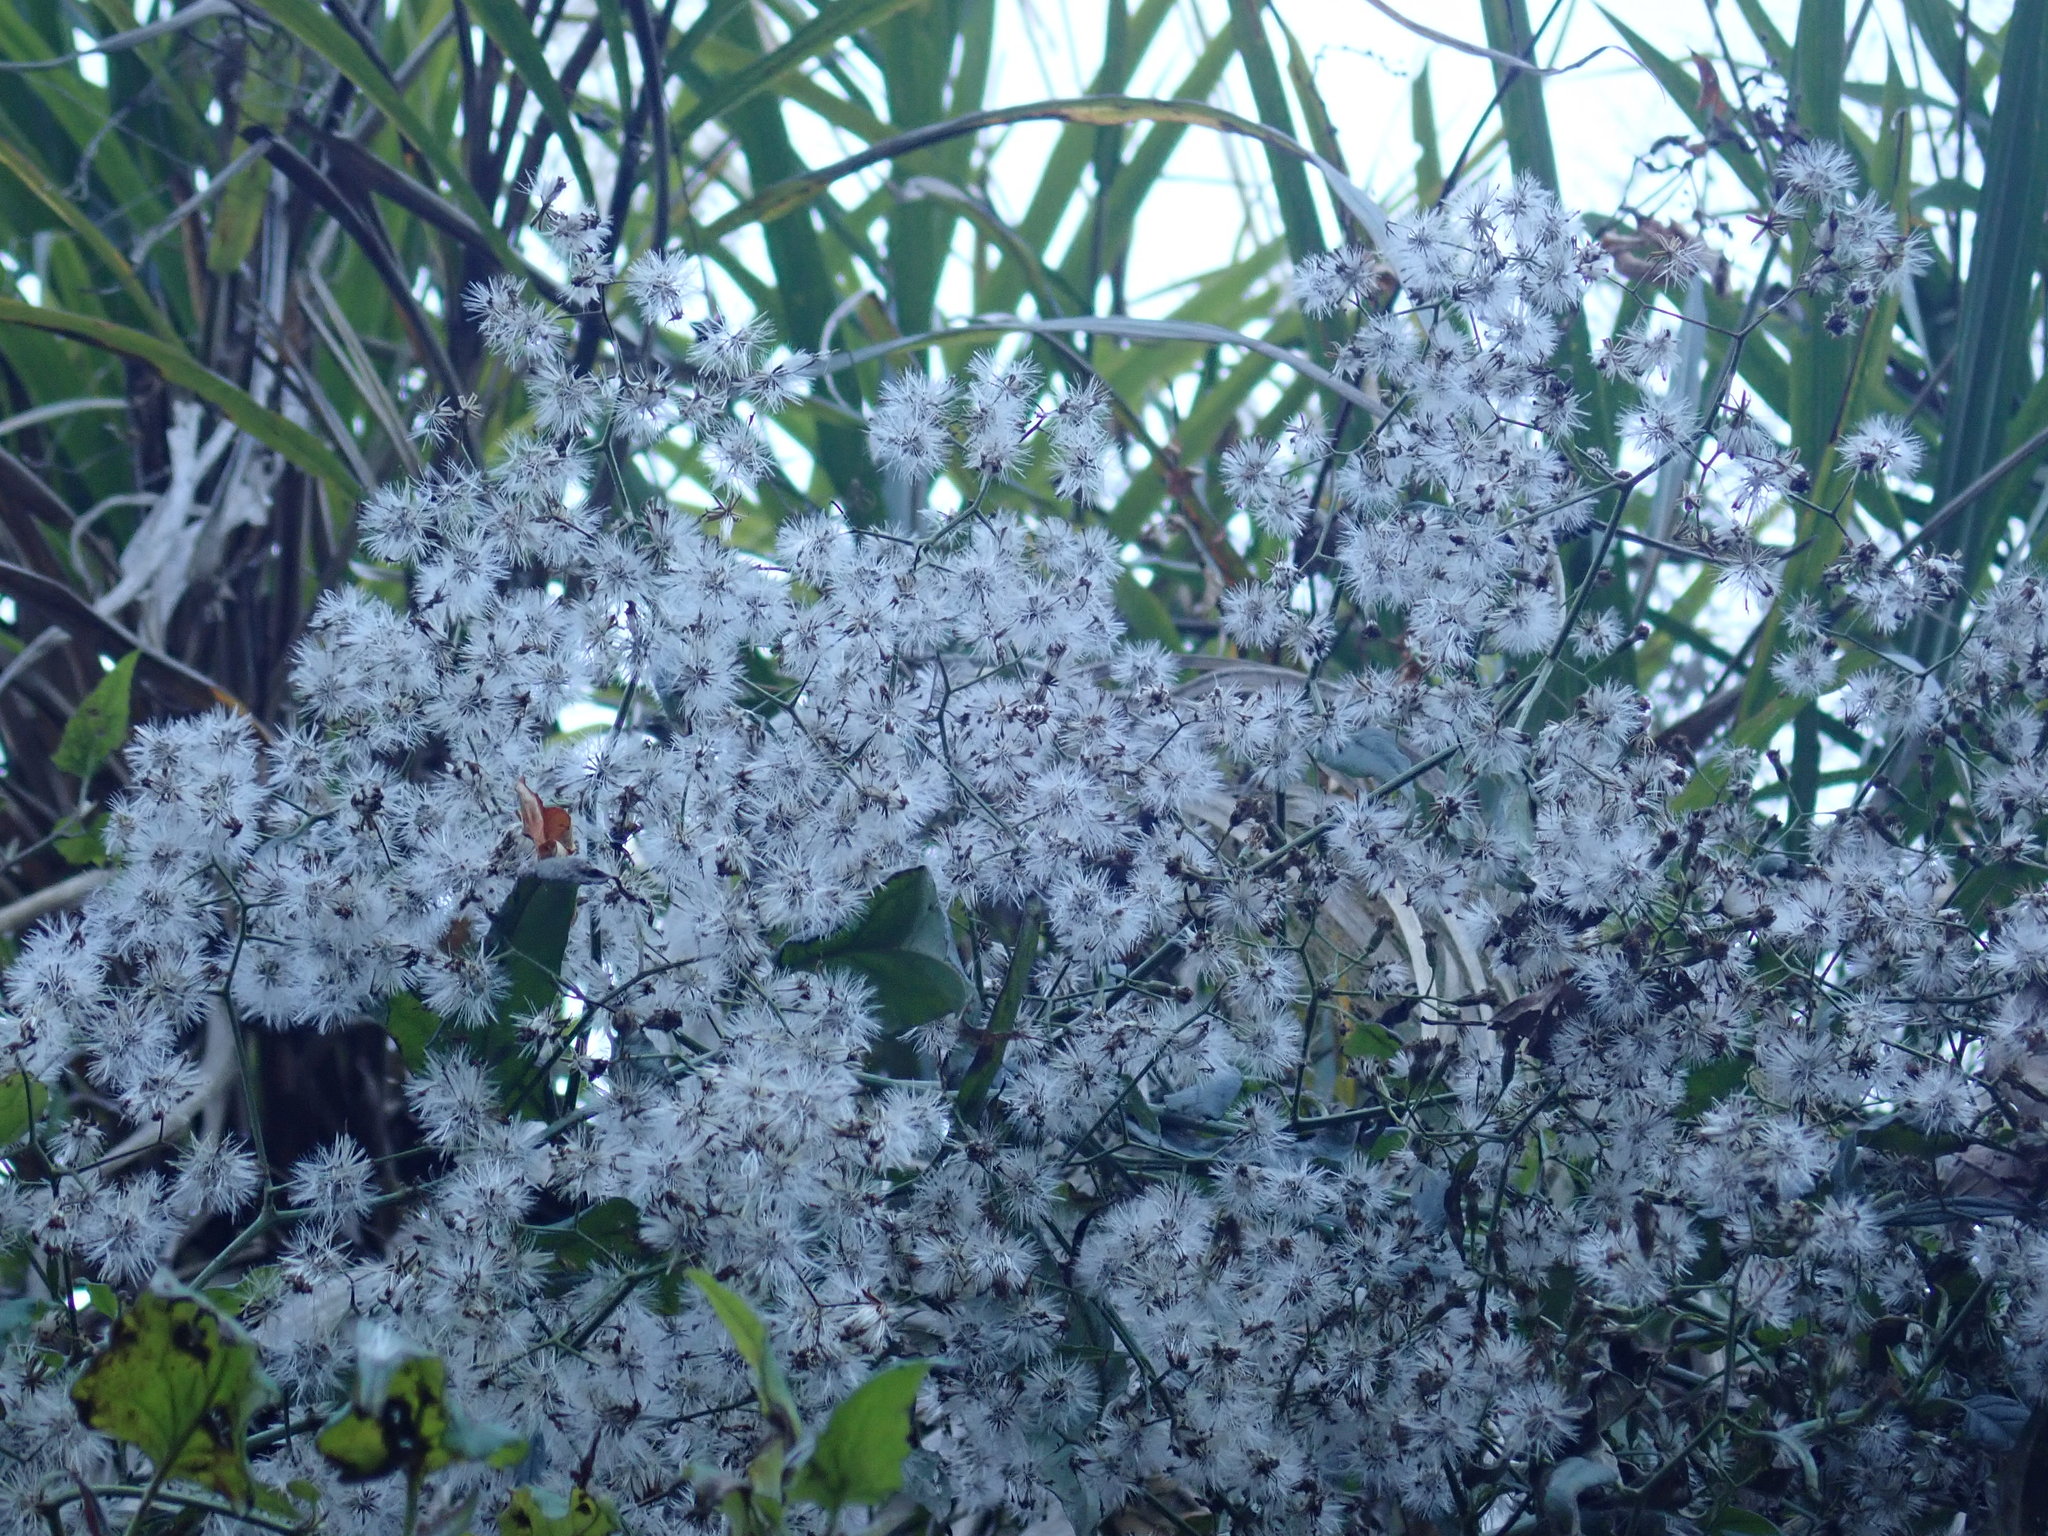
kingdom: Plantae
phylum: Tracheophyta
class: Magnoliopsida
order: Asterales
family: Asteraceae
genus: Senecio
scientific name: Senecio scandens
